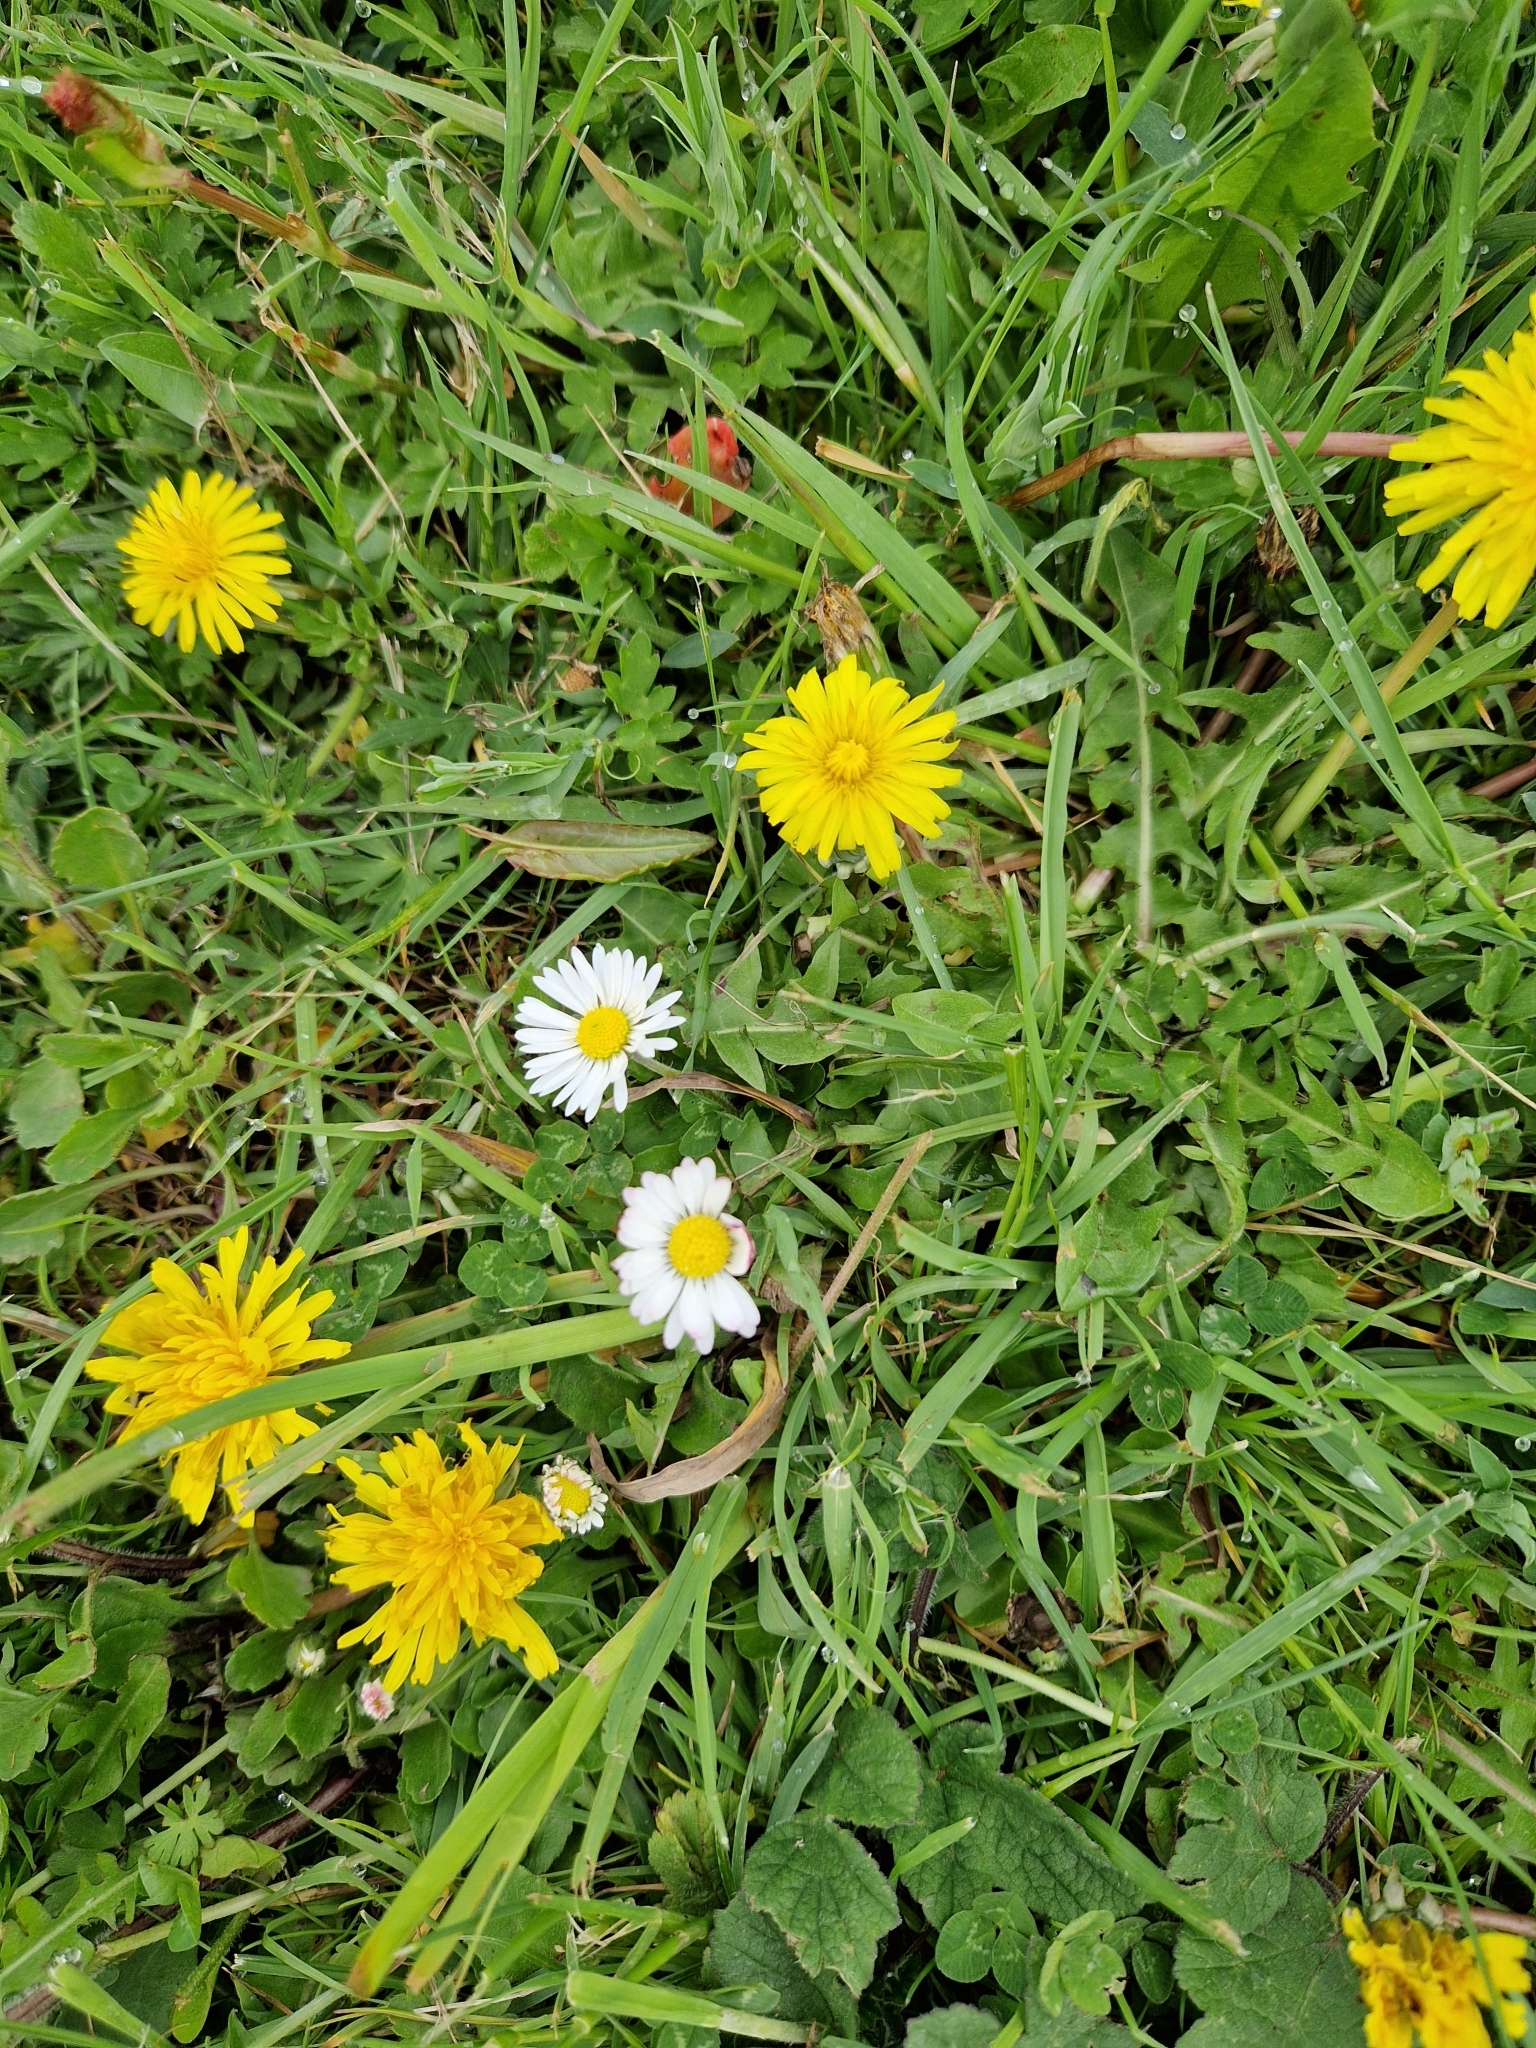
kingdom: Plantae
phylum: Tracheophyta
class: Magnoliopsida
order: Asterales
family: Asteraceae
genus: Bellis
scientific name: Bellis perennis
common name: Lawndaisy
